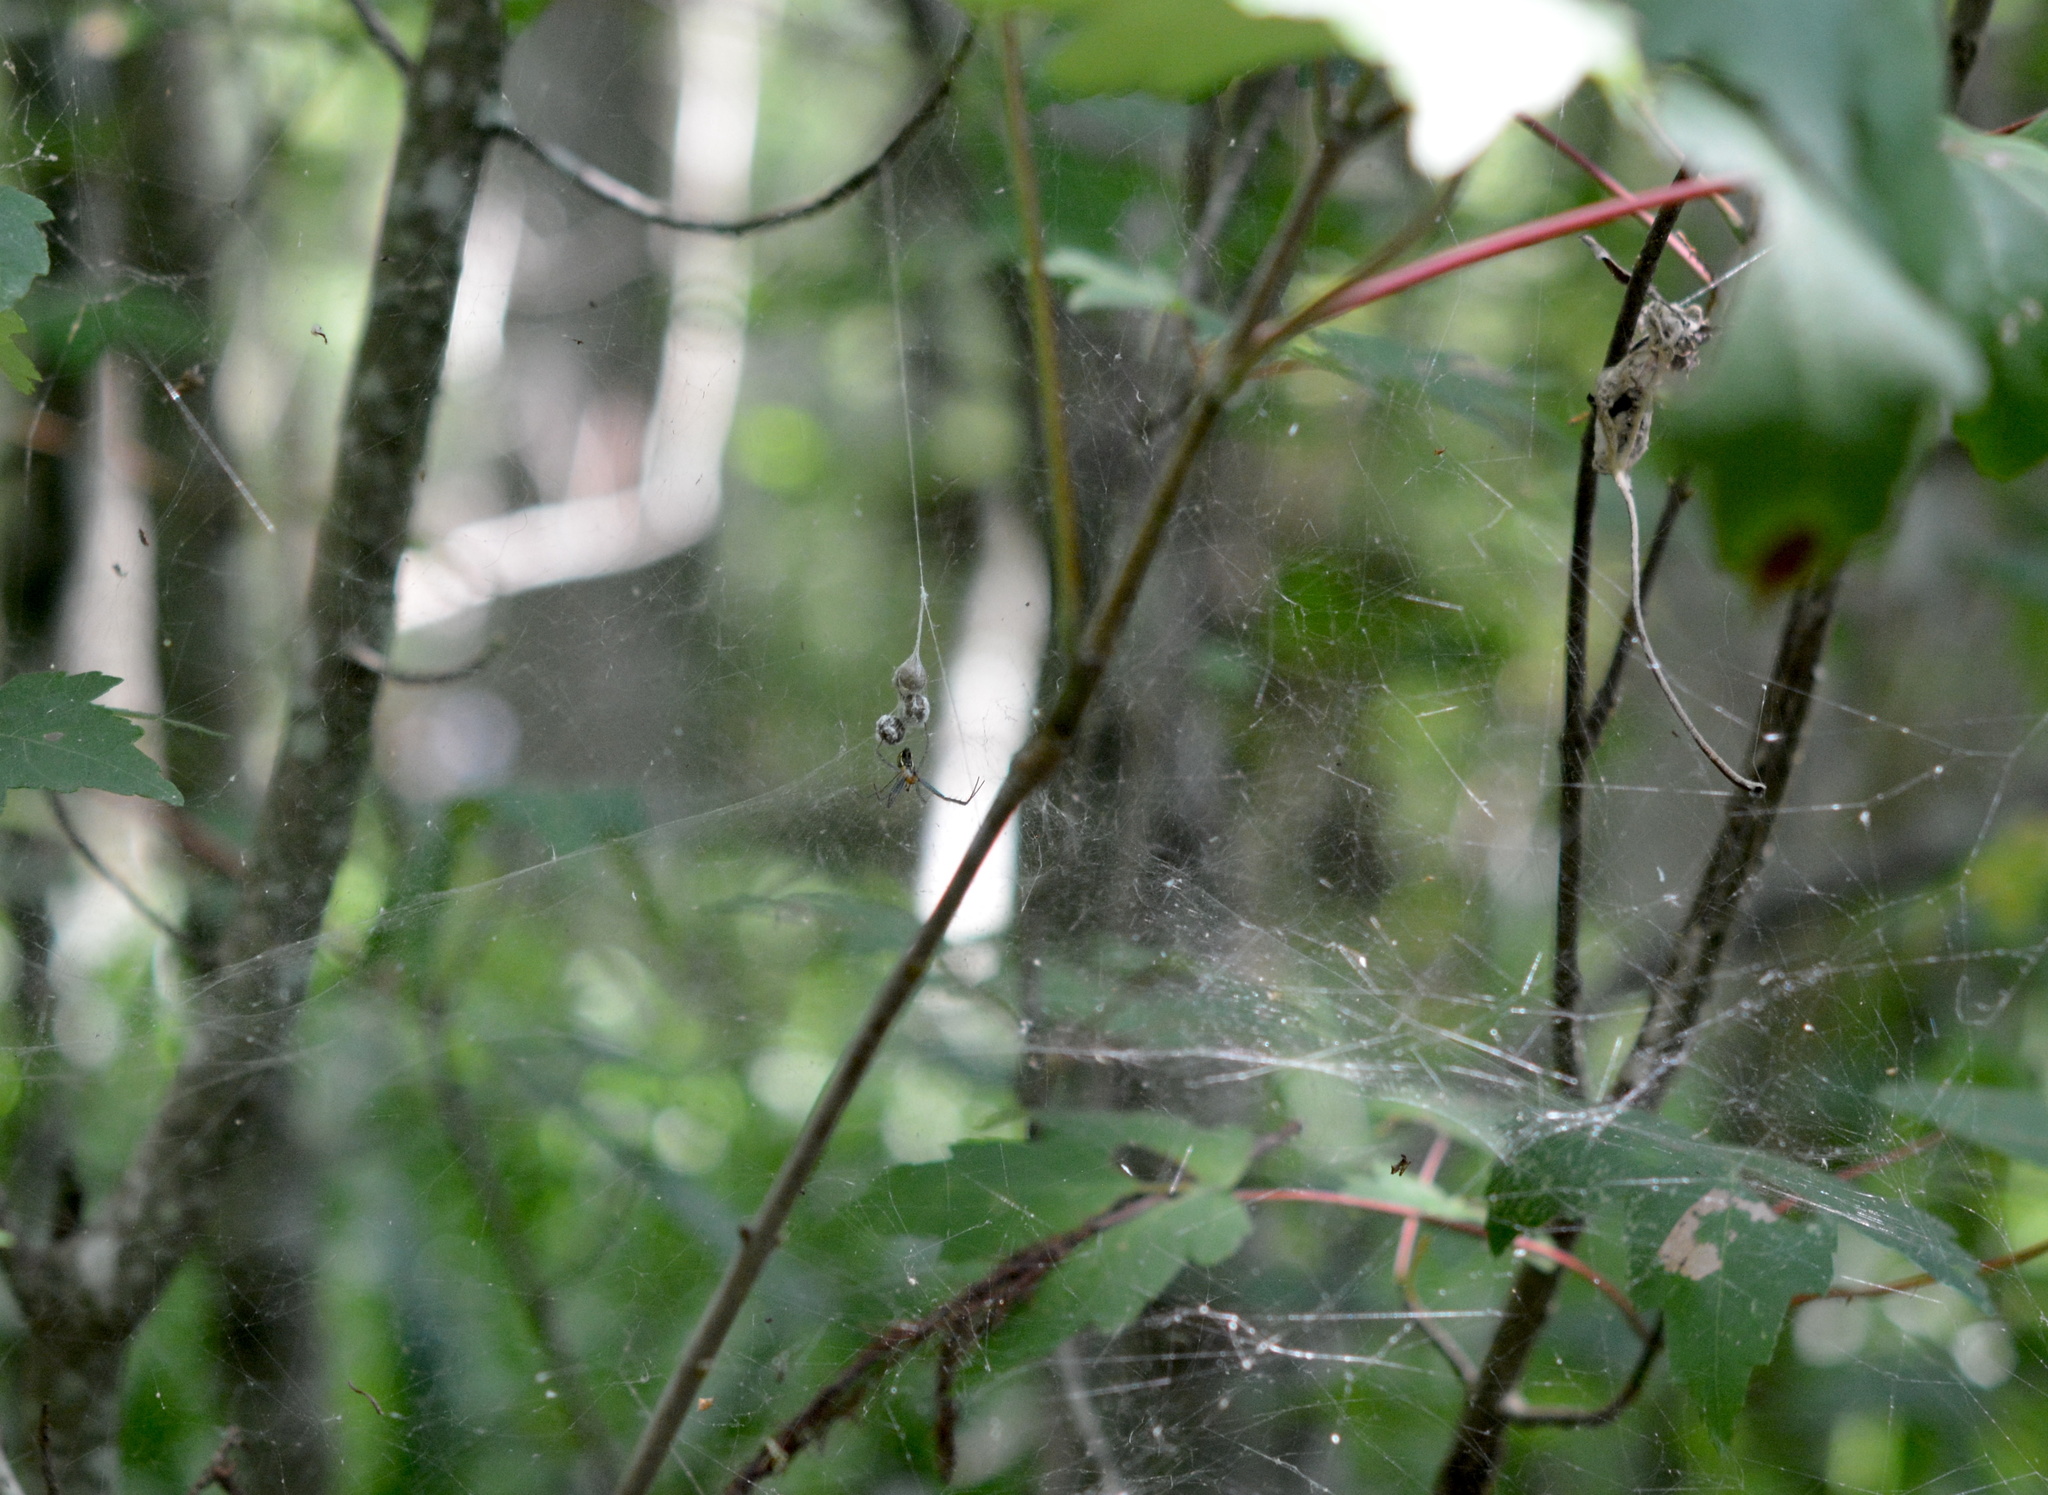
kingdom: Animalia
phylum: Arthropoda
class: Arachnida
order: Araneae
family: Araneidae
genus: Mecynogea
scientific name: Mecynogea lemniscata
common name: Orb weavers
